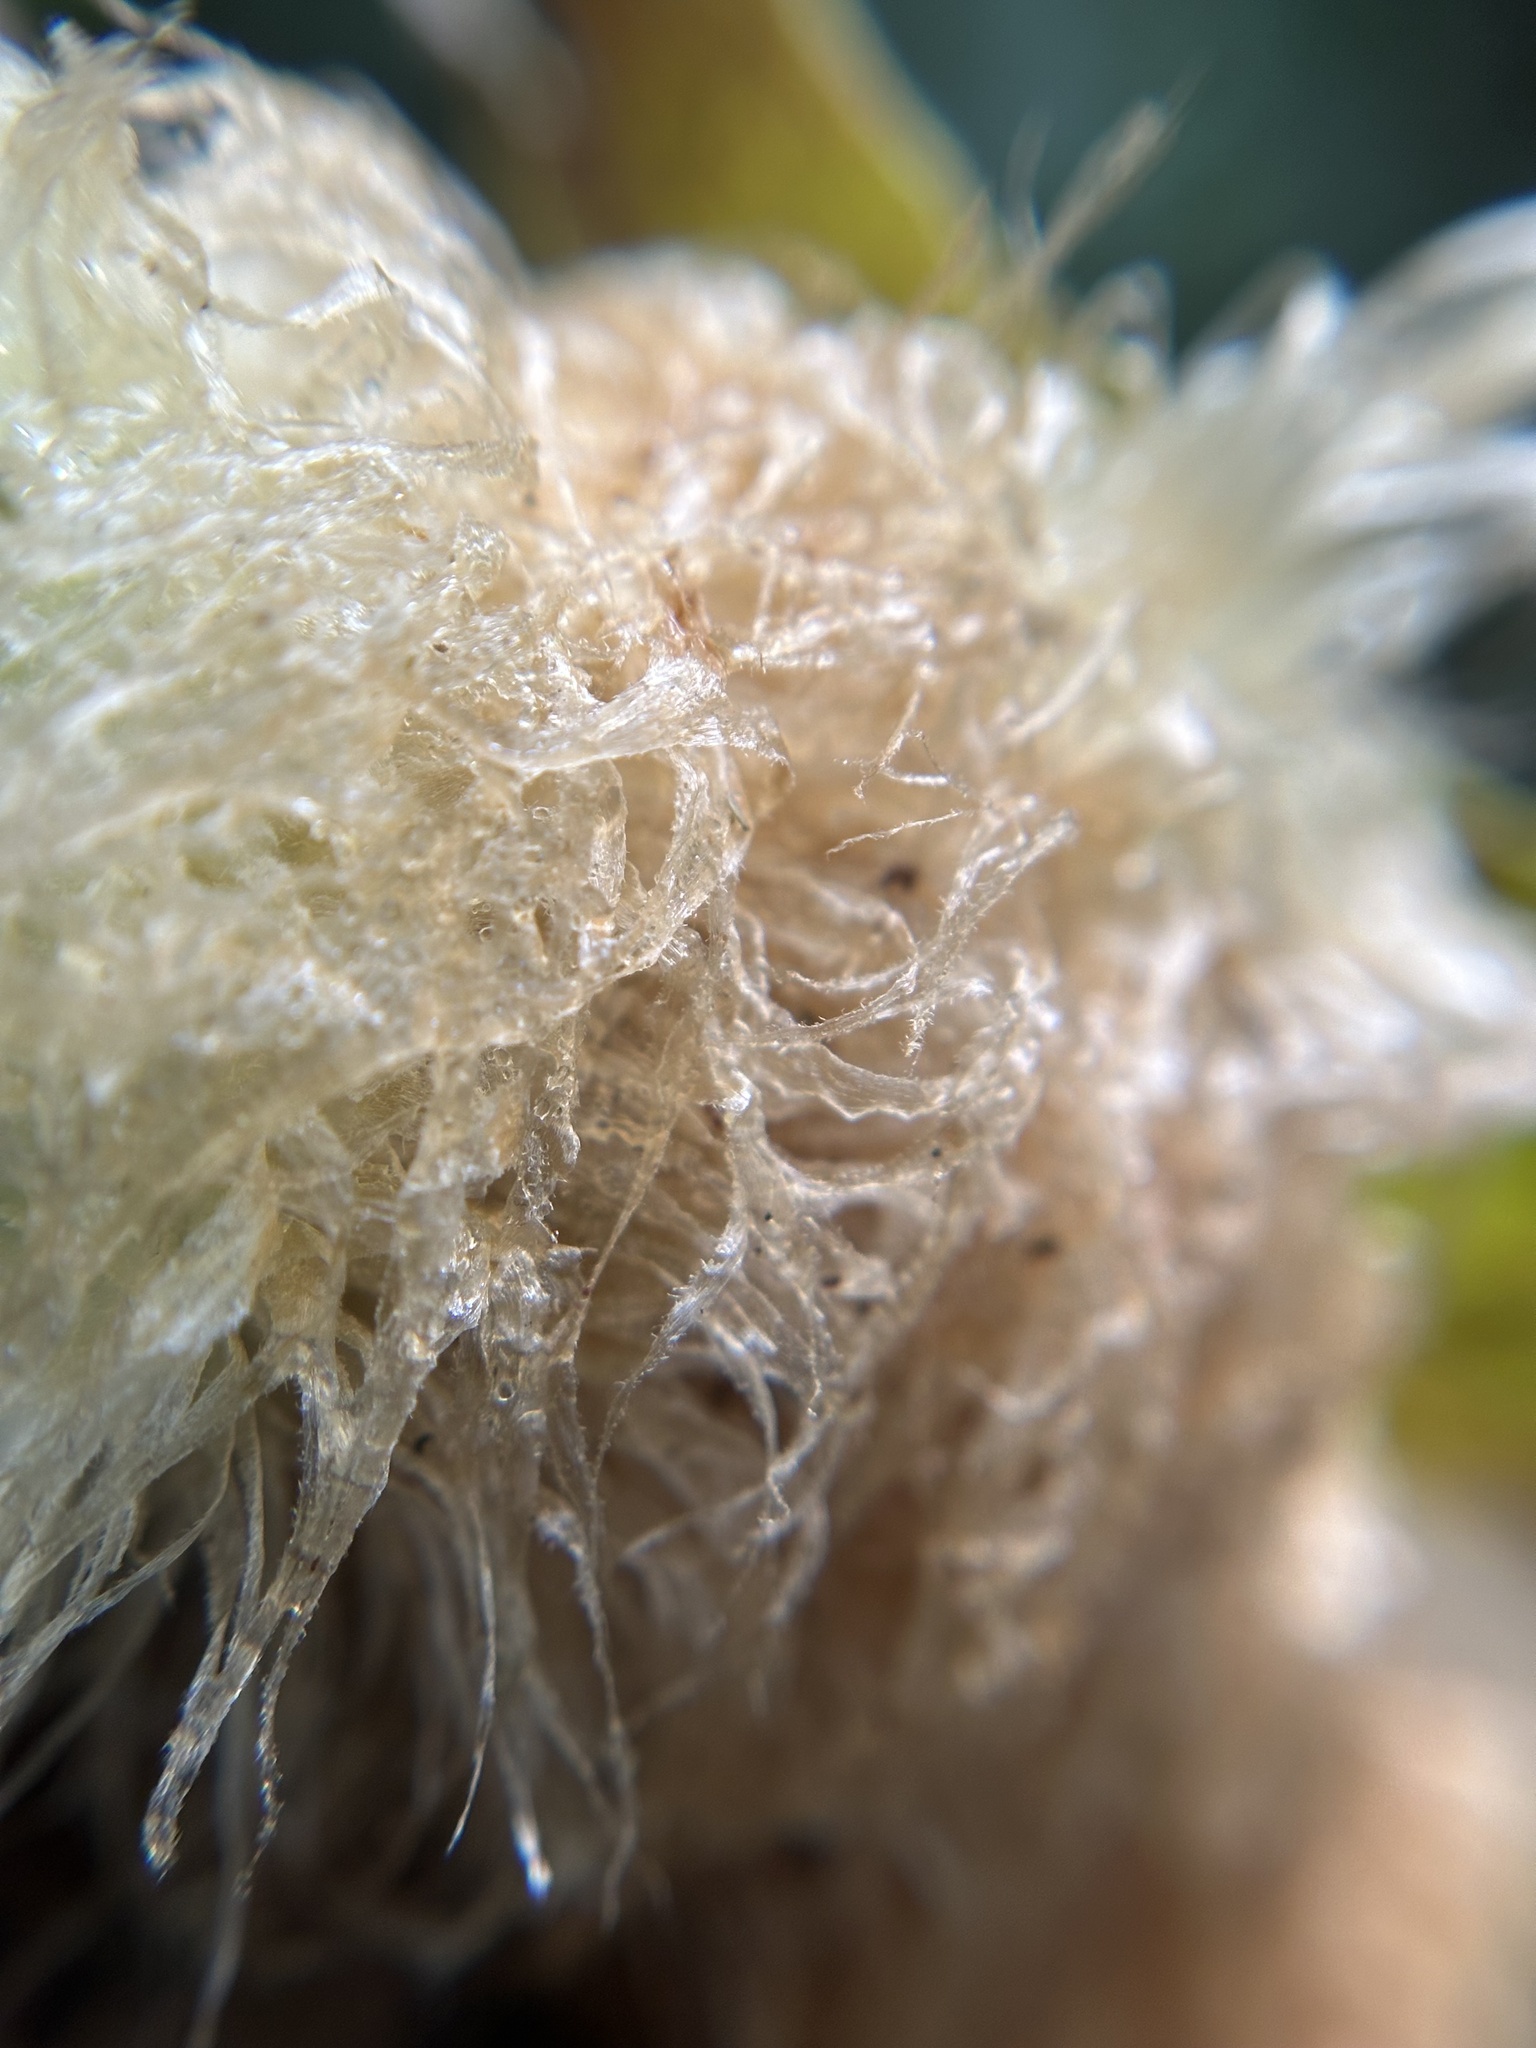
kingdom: Plantae
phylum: Tracheophyta
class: Polypodiopsida
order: Polypodiales
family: Polypodiaceae
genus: Phlebodium
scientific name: Phlebodium aureum
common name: Gold-foot fern
